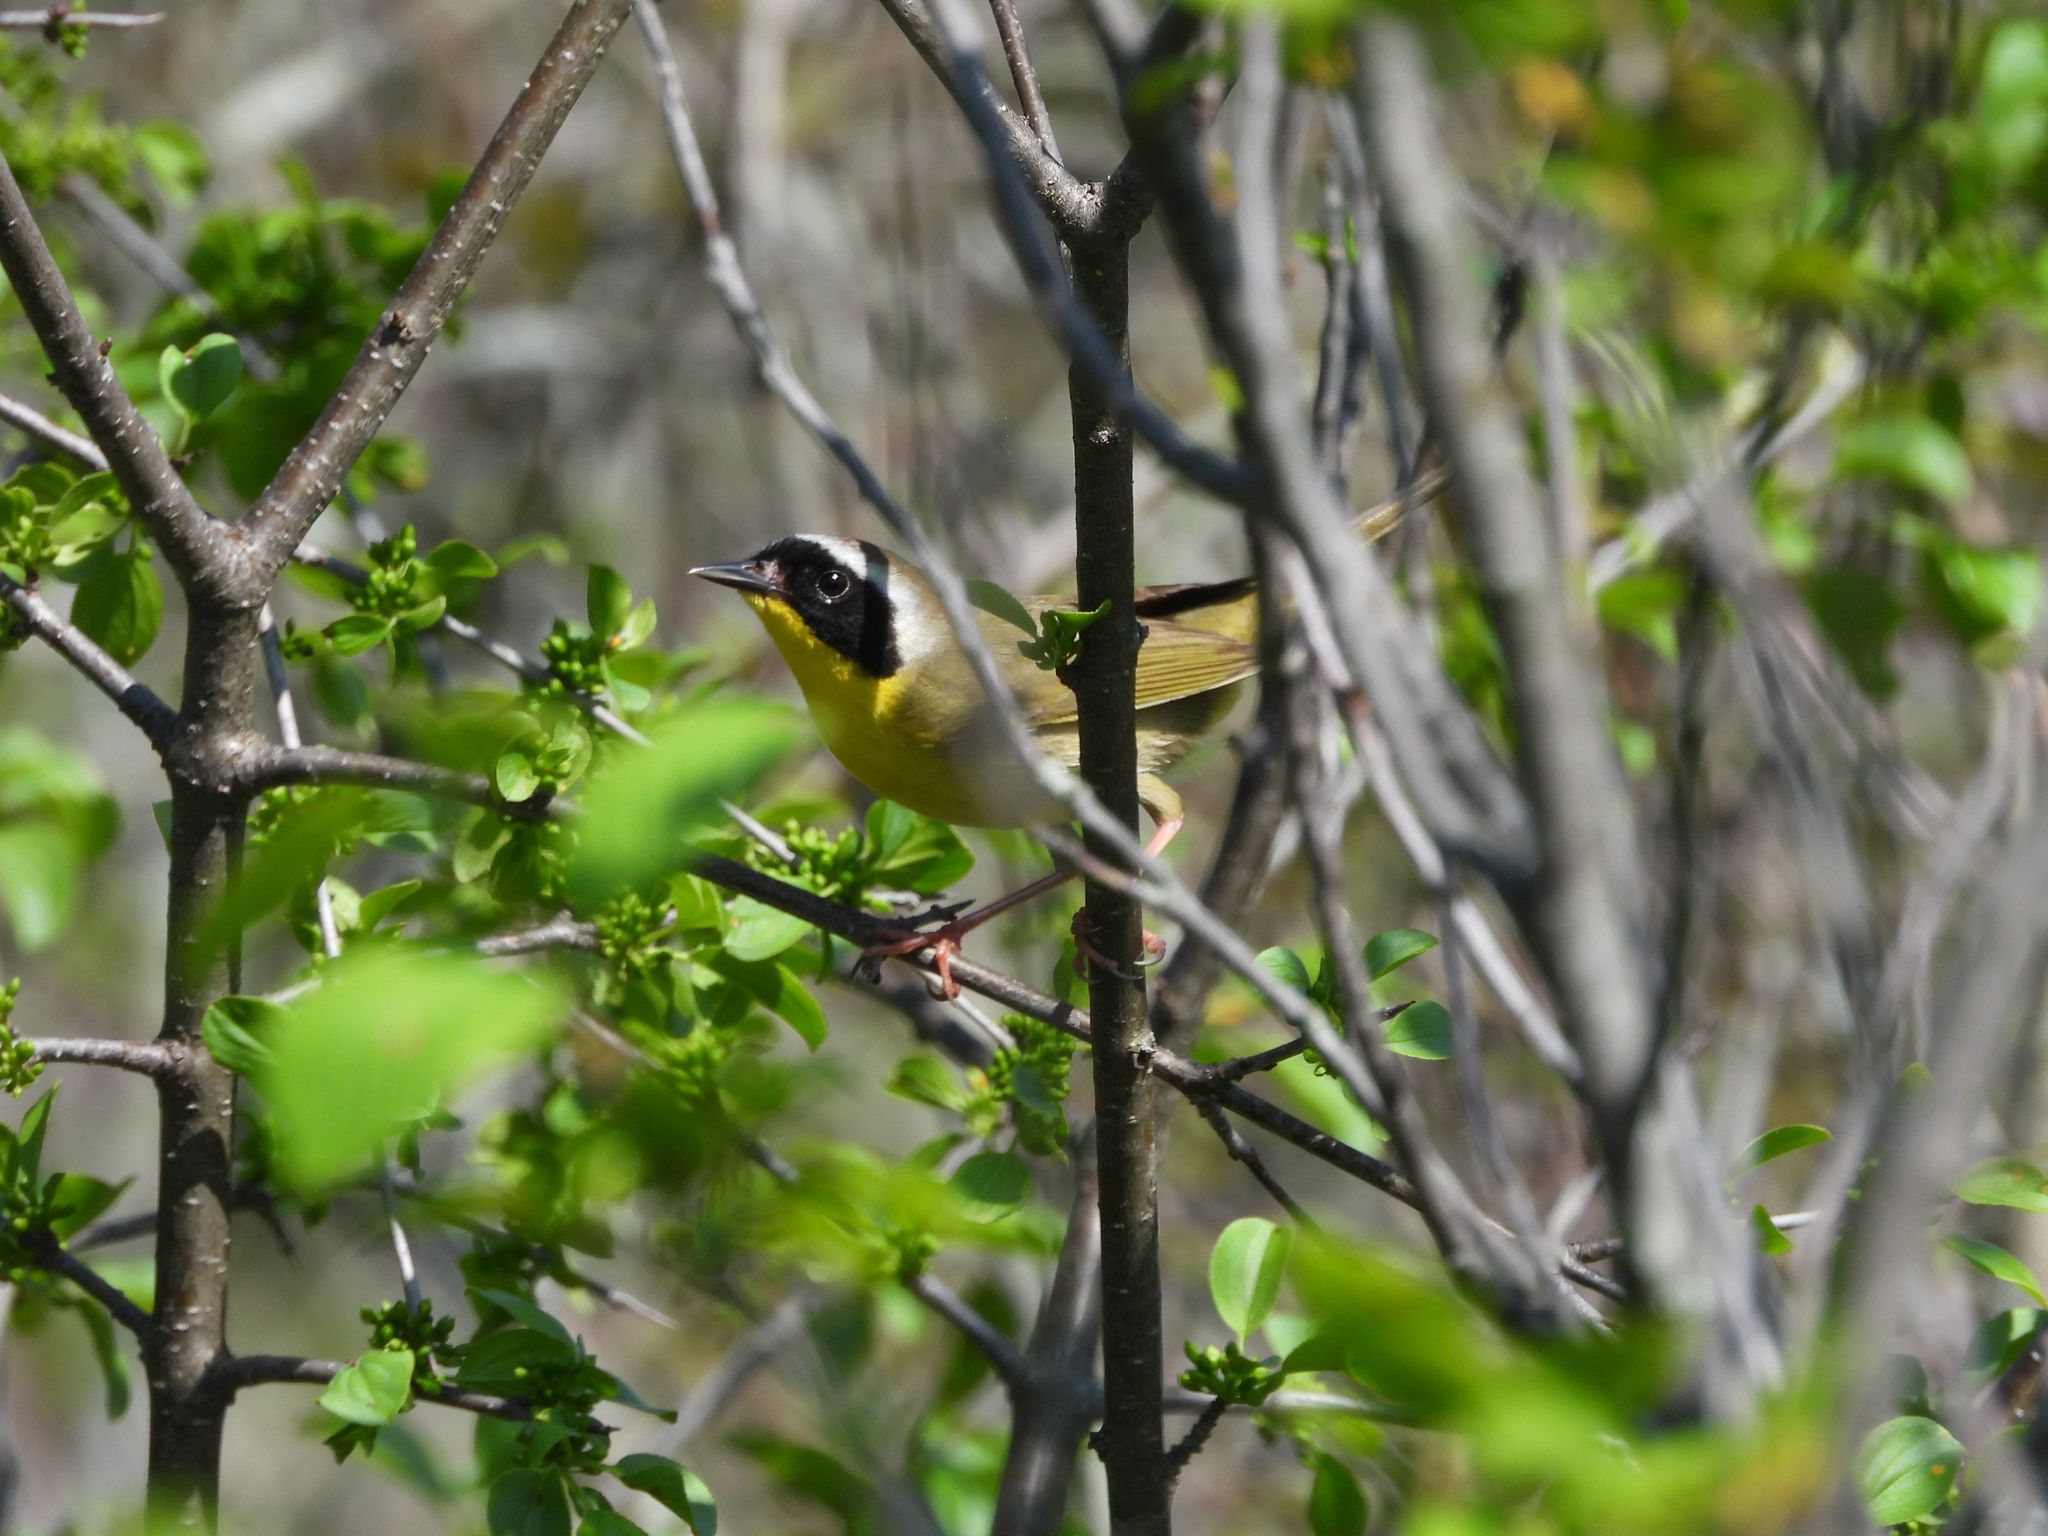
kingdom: Animalia
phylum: Chordata
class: Aves
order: Passeriformes
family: Parulidae
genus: Geothlypis
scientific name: Geothlypis trichas
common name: Common yellowthroat
